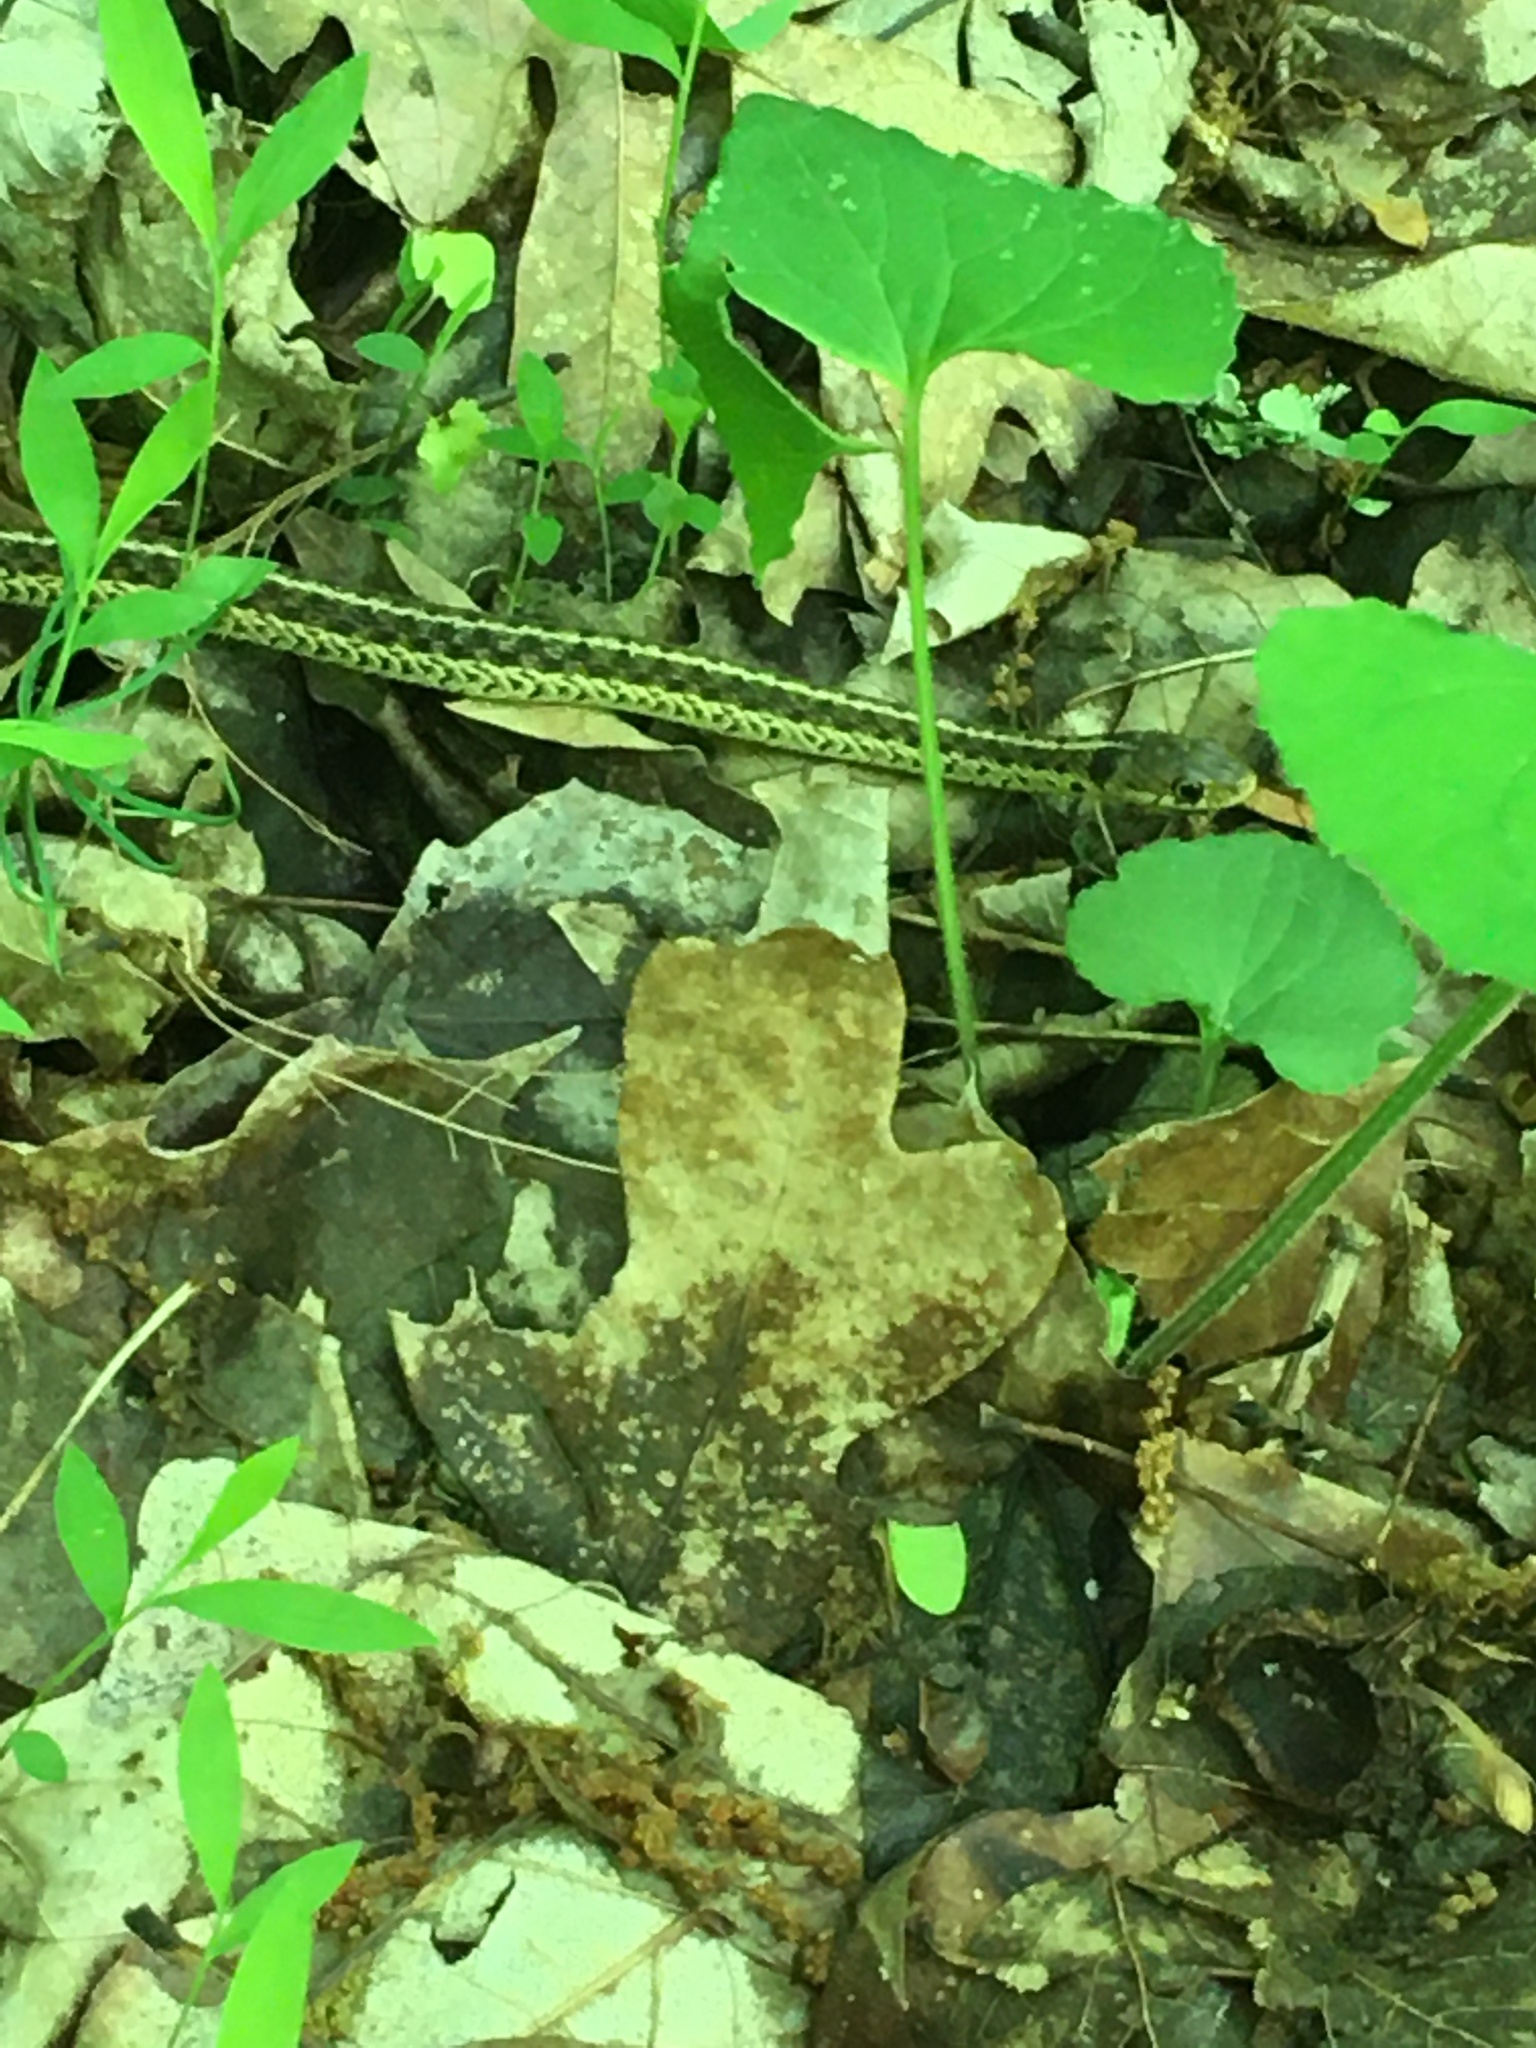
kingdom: Animalia
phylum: Chordata
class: Squamata
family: Colubridae
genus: Thamnophis
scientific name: Thamnophis sirtalis
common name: Common garter snake
